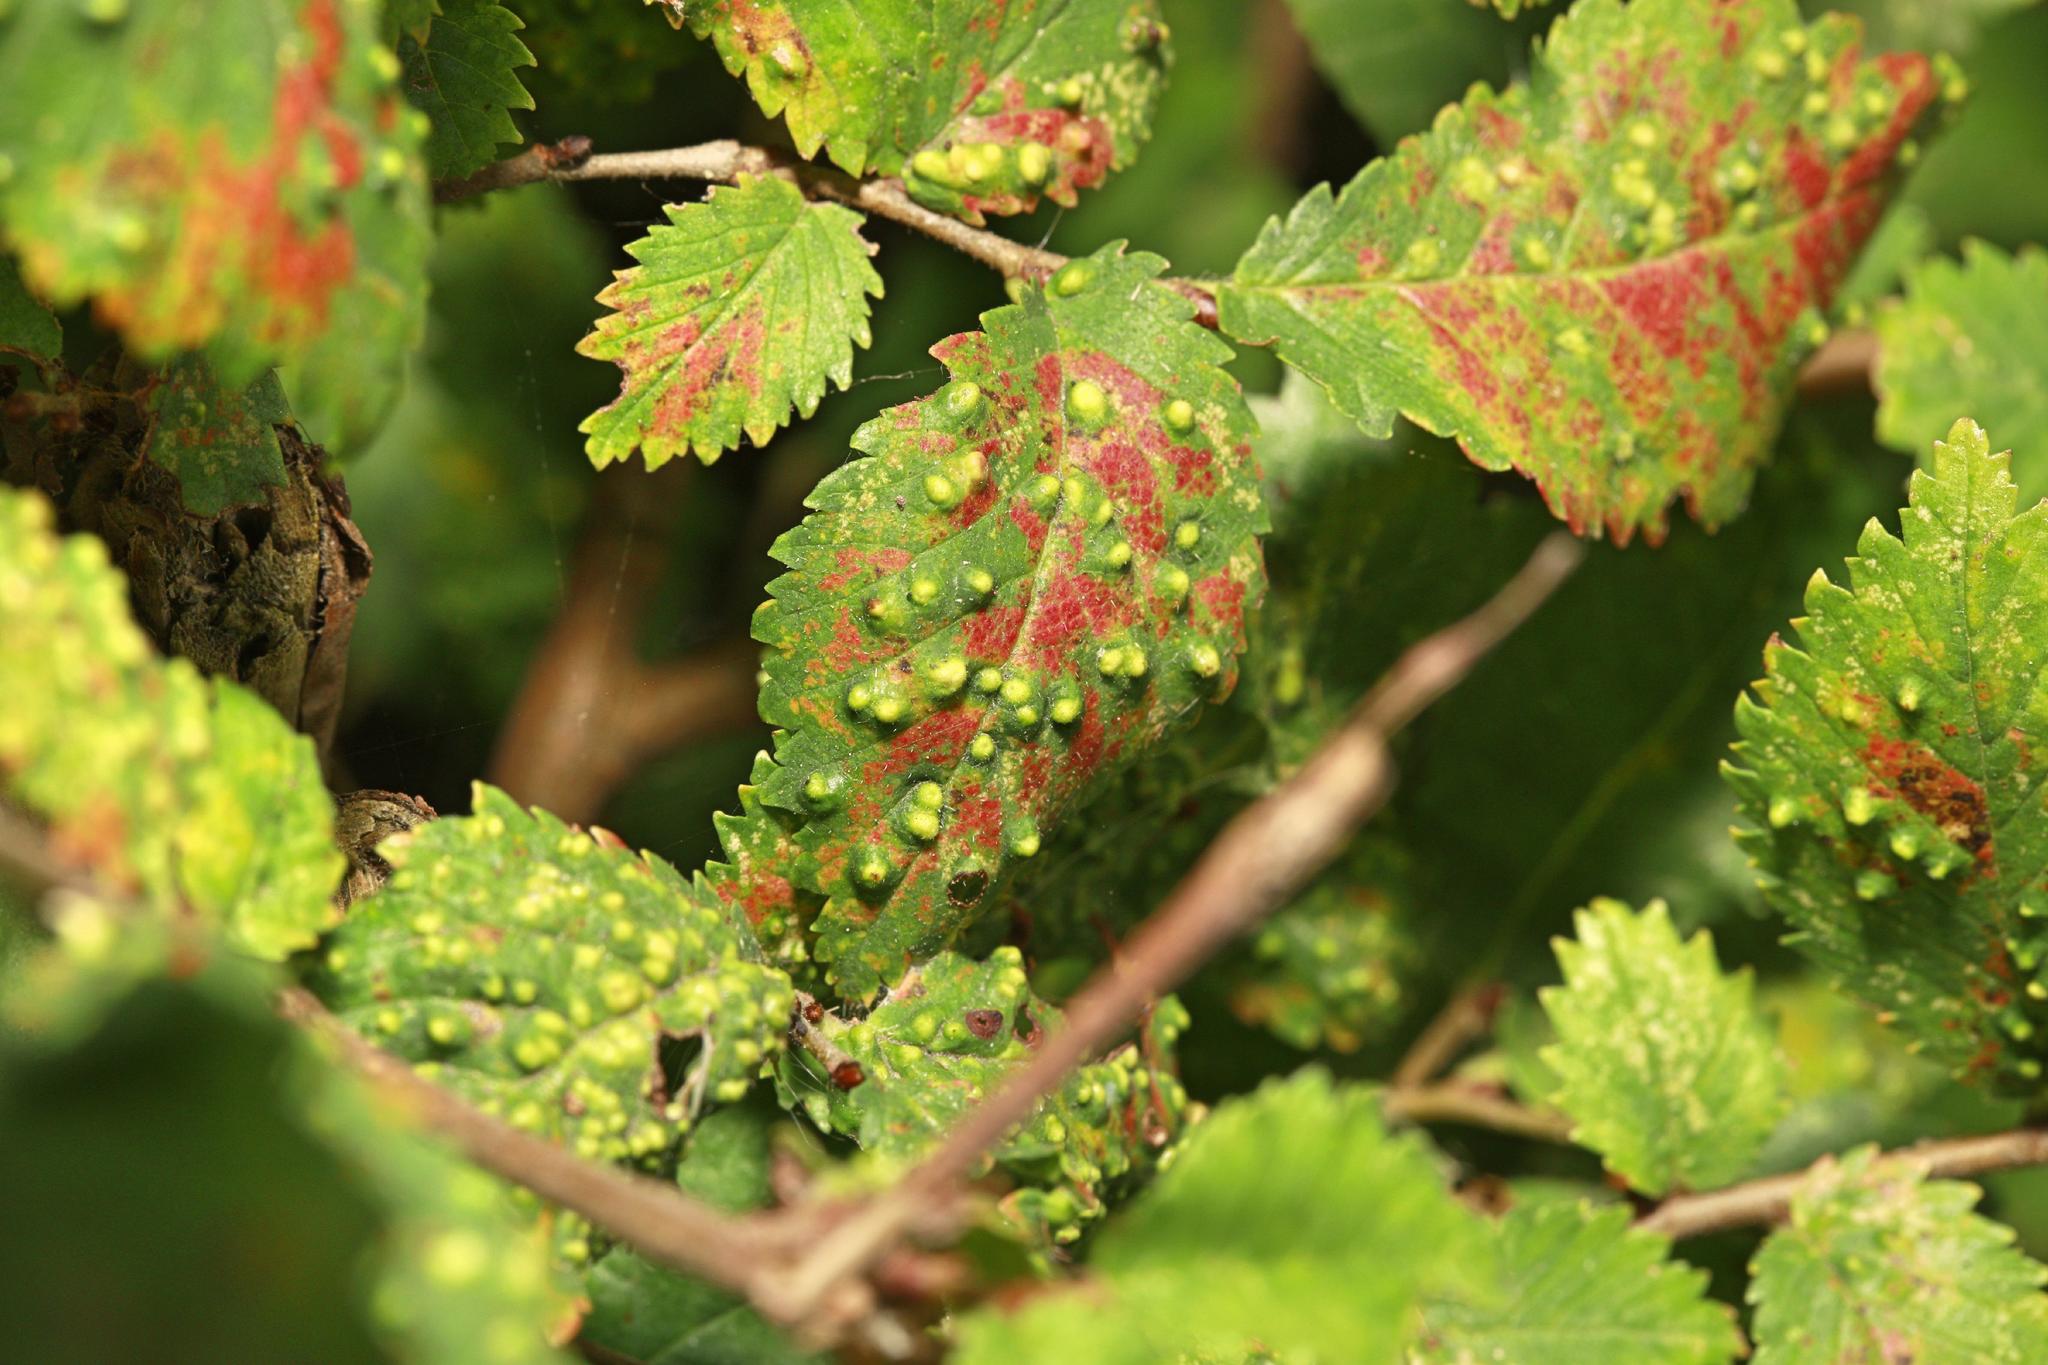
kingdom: Animalia
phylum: Arthropoda
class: Arachnida
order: Trombidiformes
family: Eriophyidae
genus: Aceria
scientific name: Aceria brevipunctata
